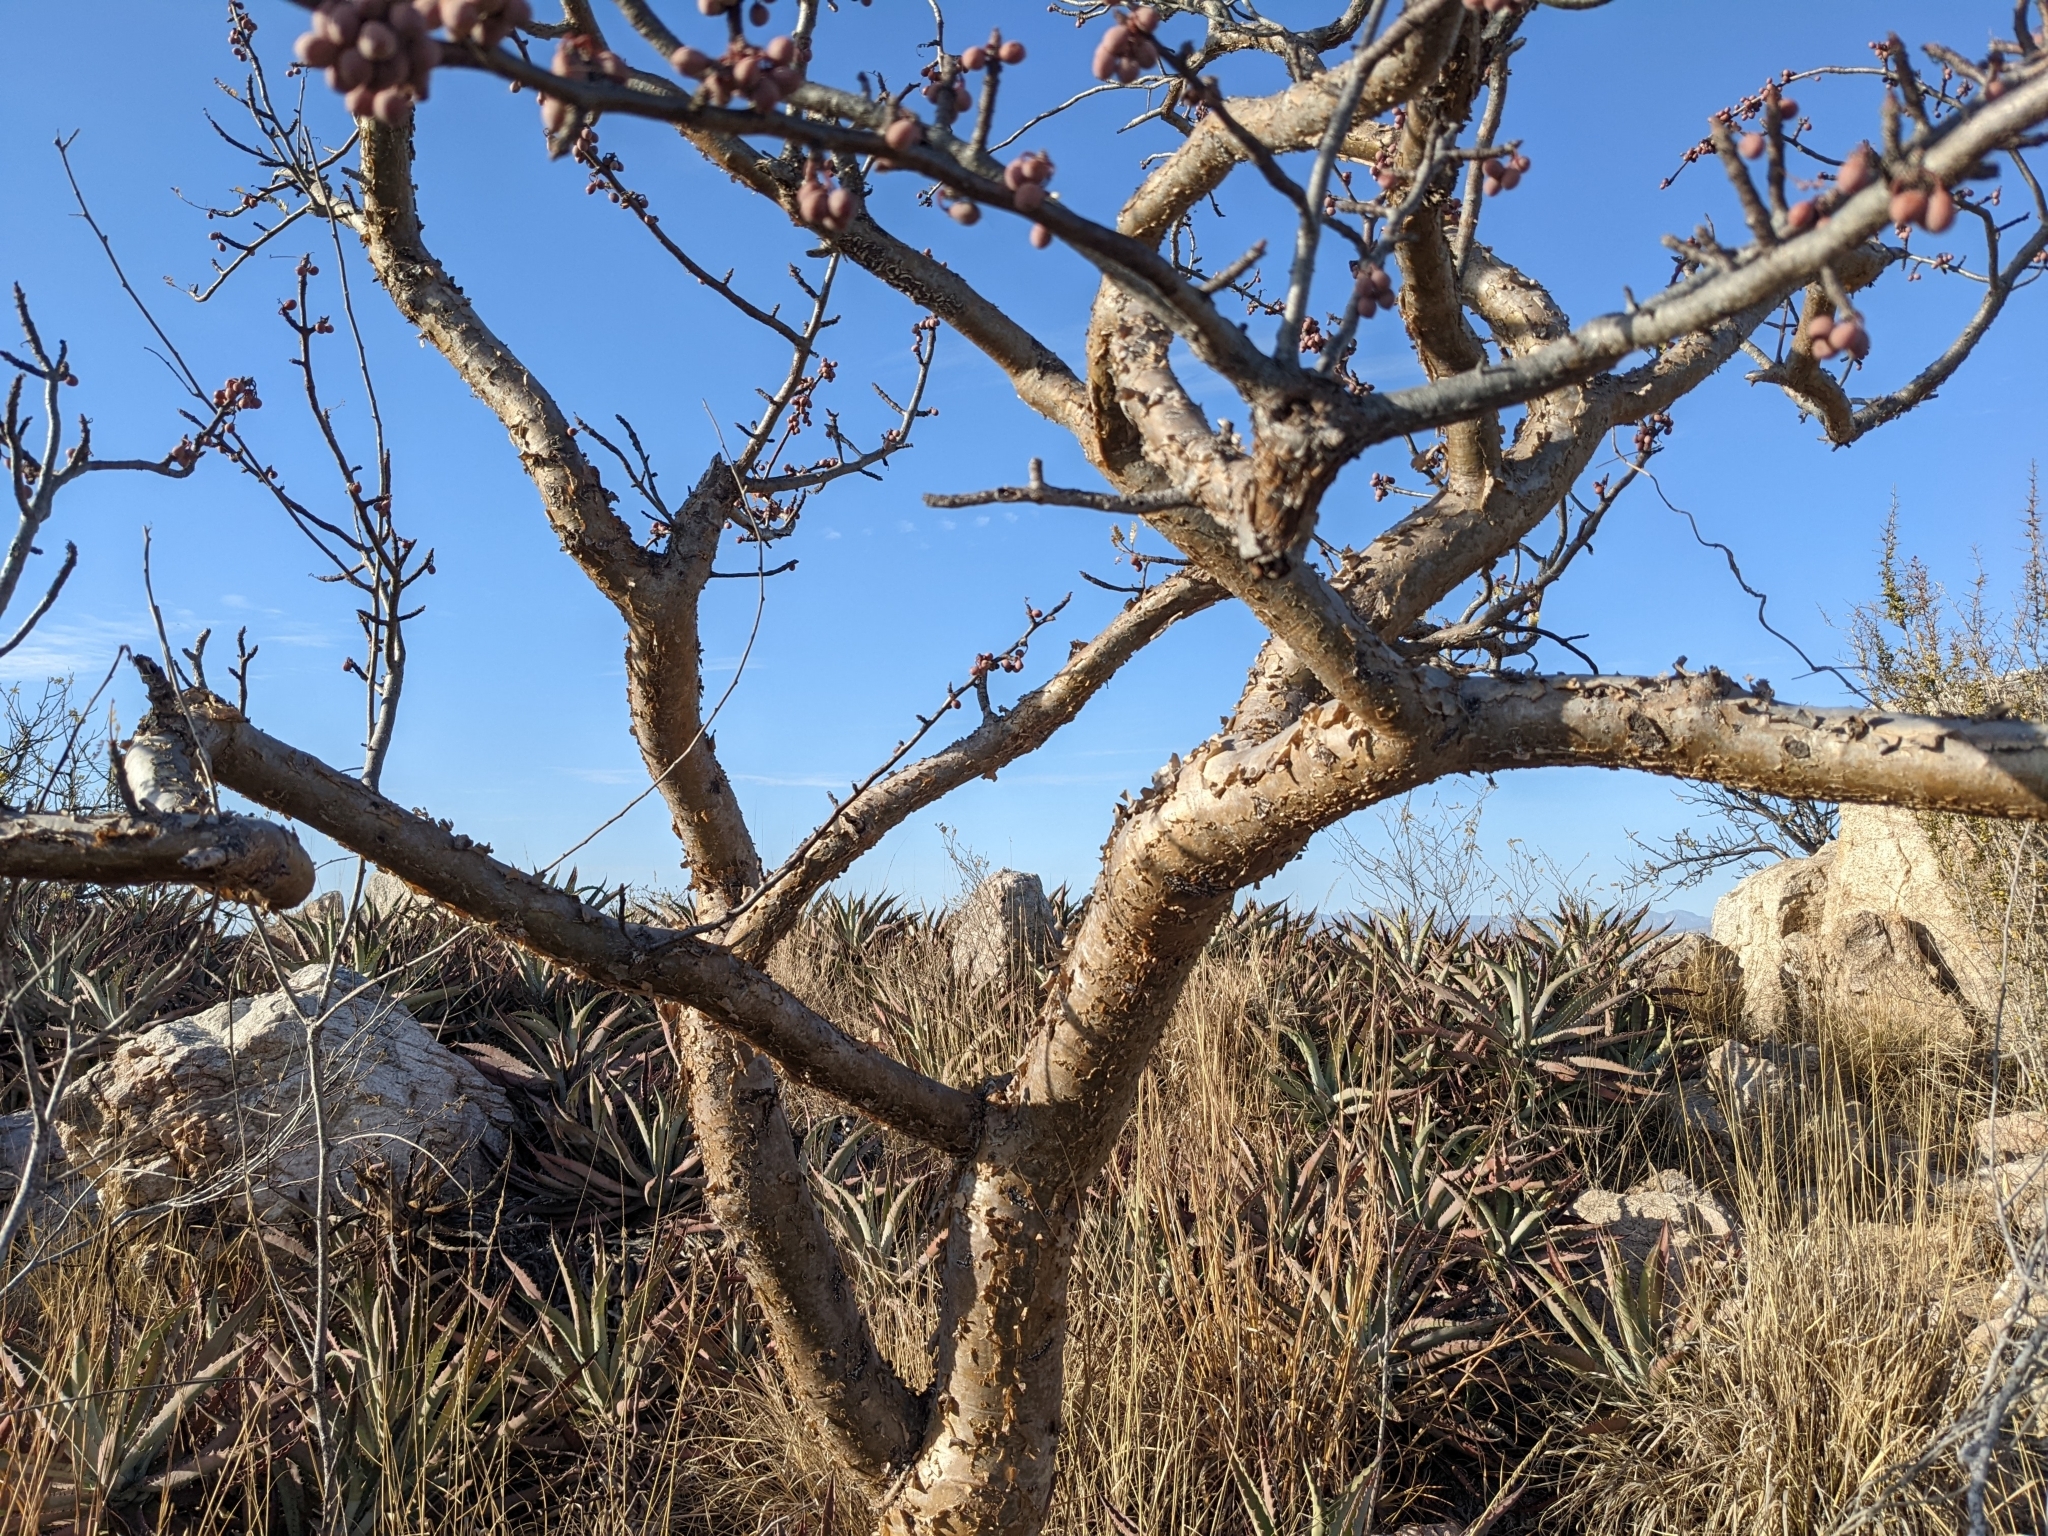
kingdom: Plantae
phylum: Tracheophyta
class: Magnoliopsida
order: Sapindales
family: Burseraceae
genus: Bursera
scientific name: Bursera microphylla
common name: Elephant tree
